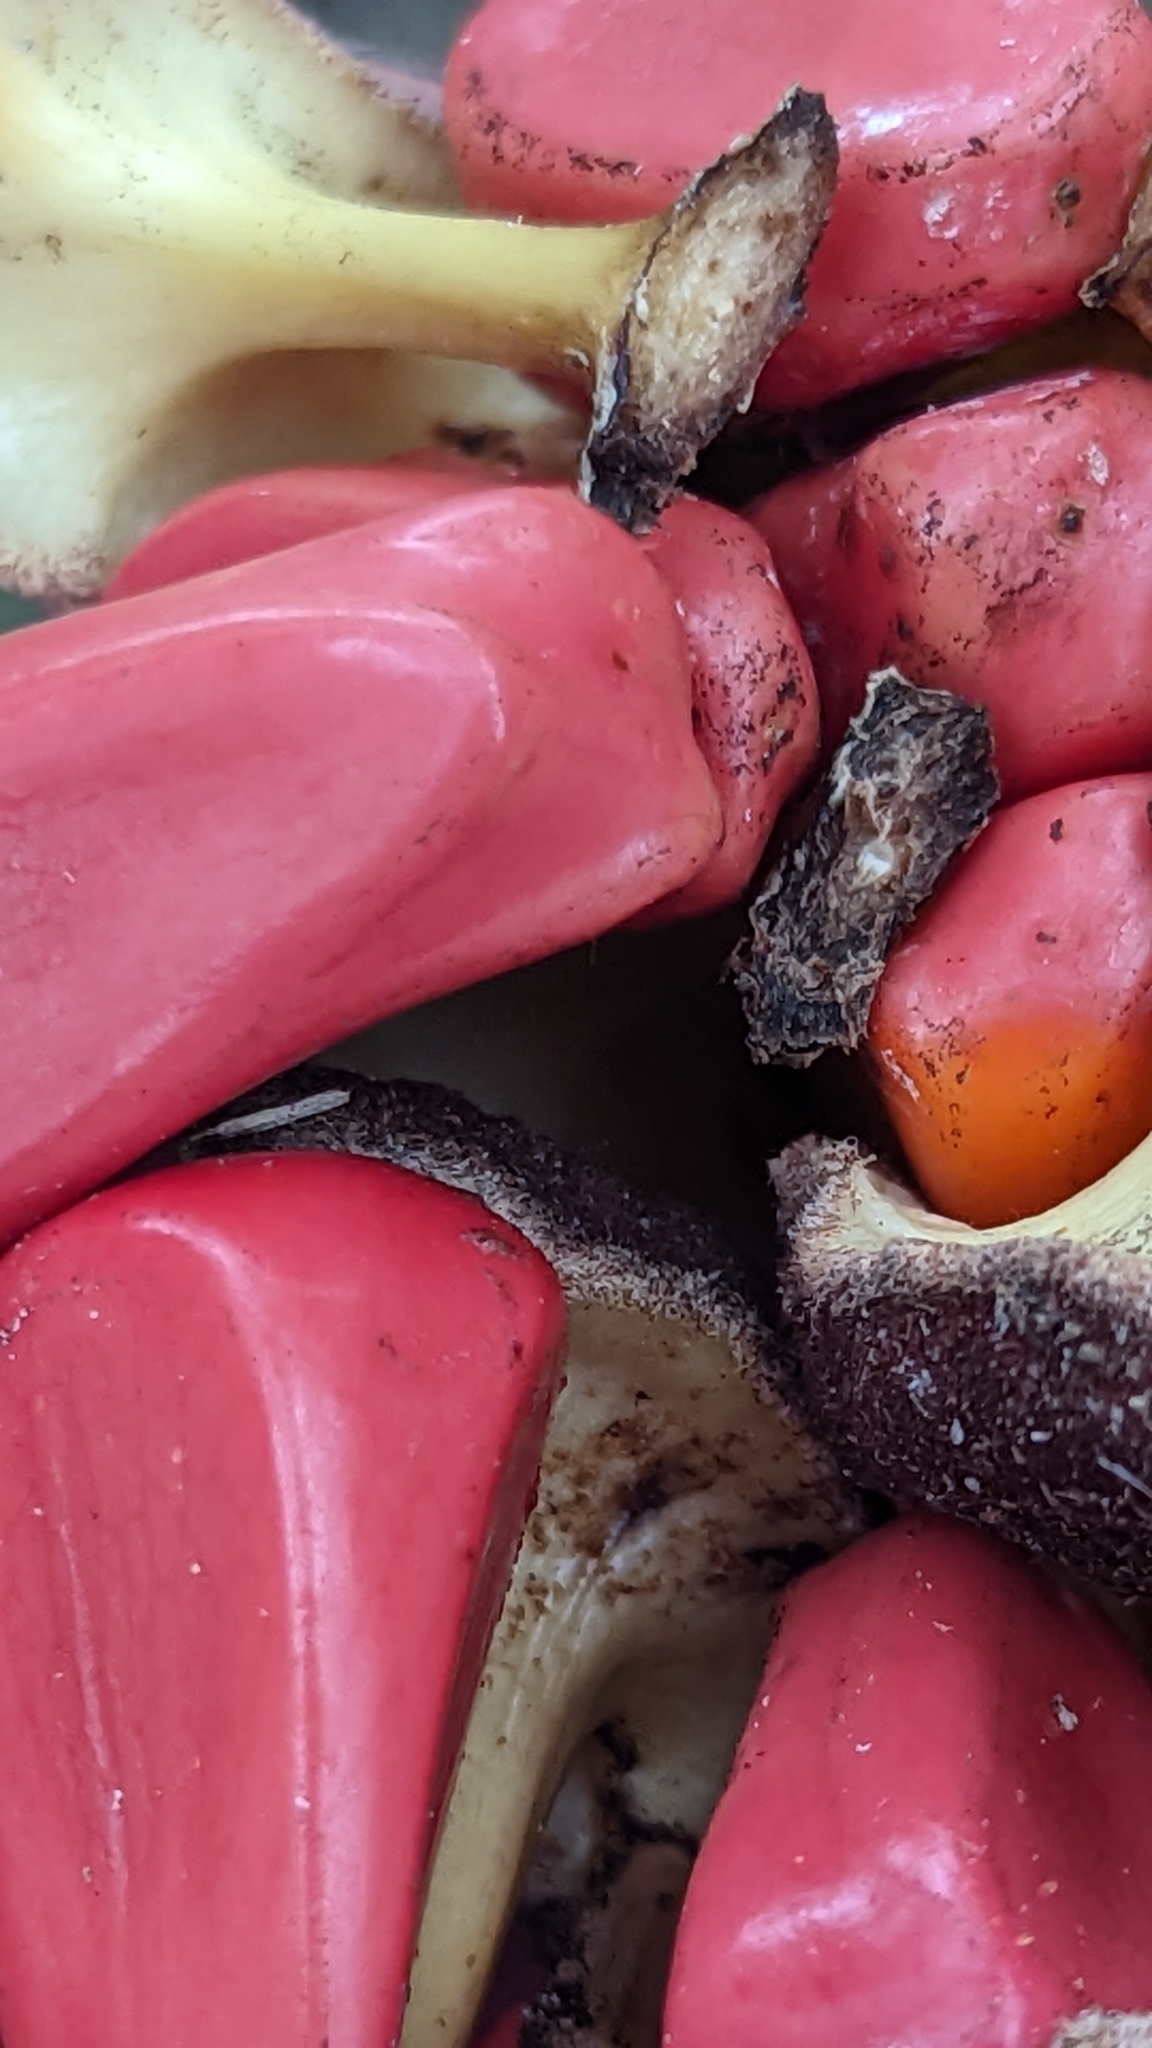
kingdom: Plantae
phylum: Tracheophyta
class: Cycadopsida
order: Cycadales
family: Zamiaceae
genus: Zamia
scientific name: Zamia integrifolia
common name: Florida arrowroot
